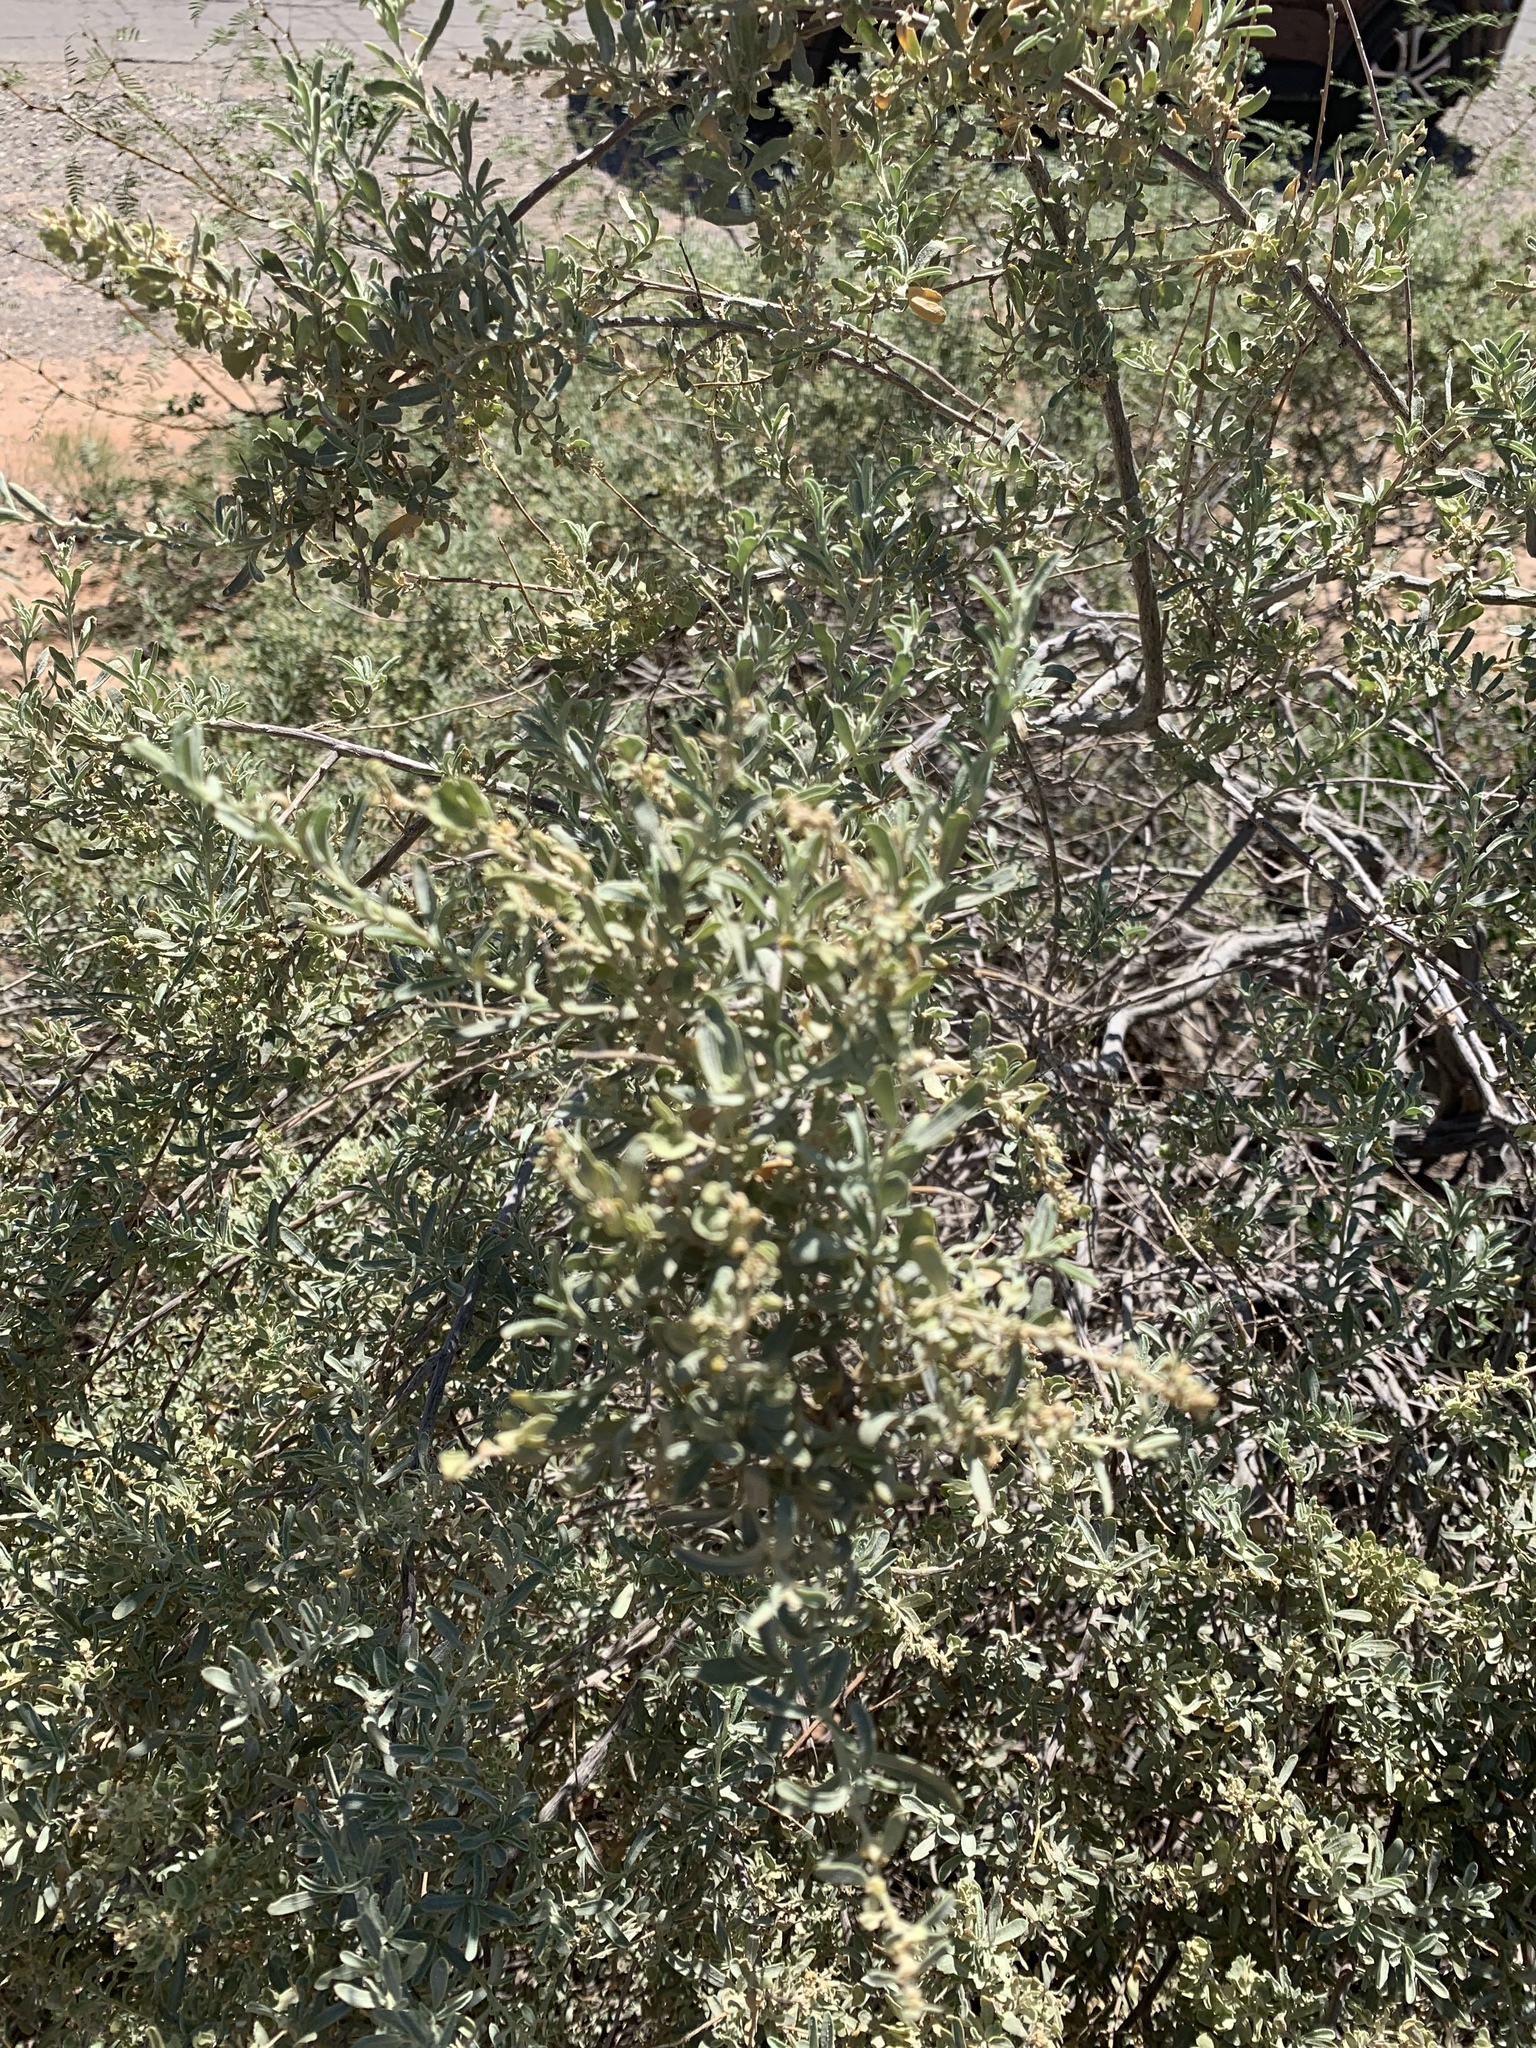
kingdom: Plantae
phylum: Tracheophyta
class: Magnoliopsida
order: Caryophyllales
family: Amaranthaceae
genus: Atriplex
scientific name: Atriplex canescens
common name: Four-wing saltbush
